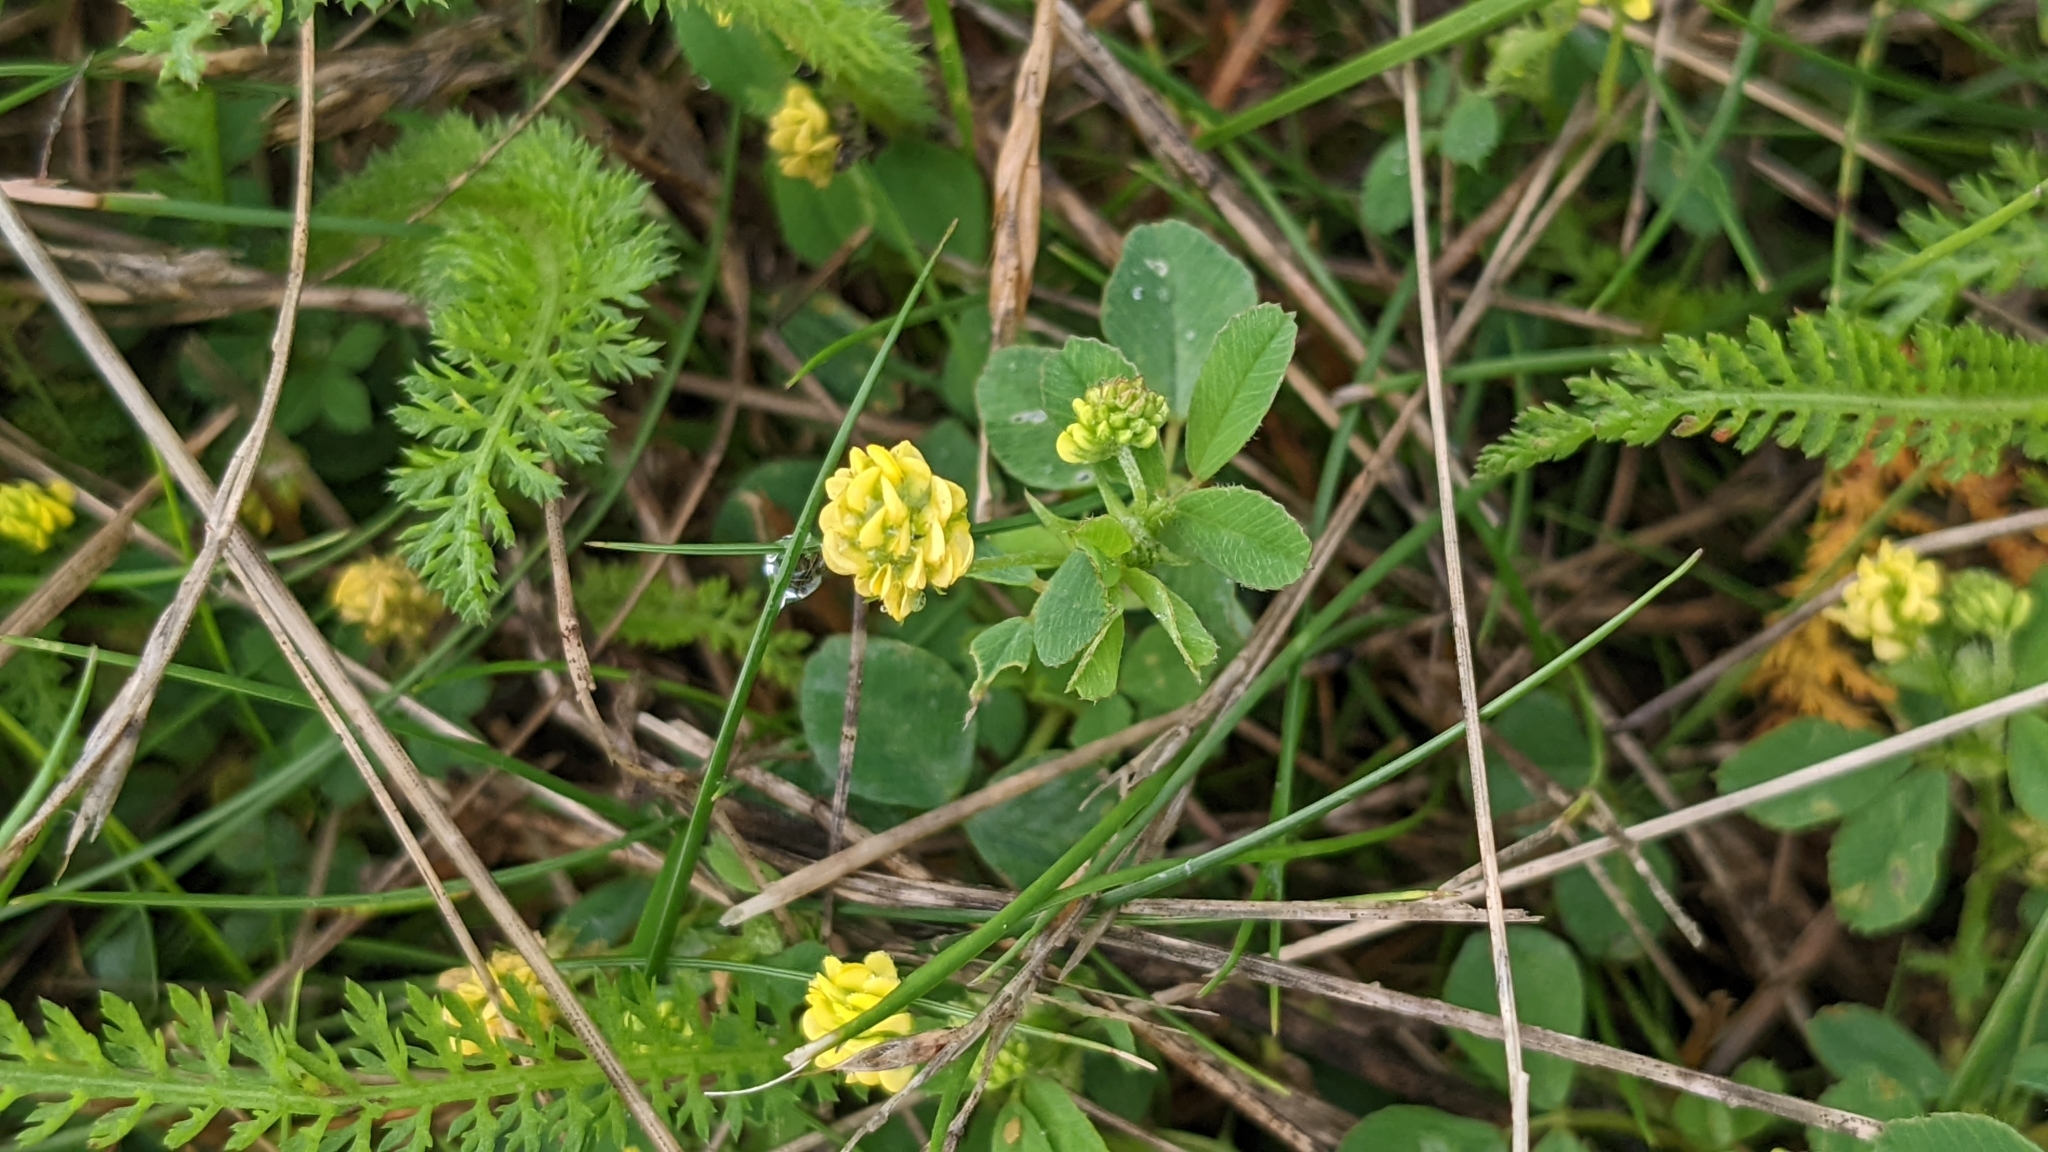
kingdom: Plantae
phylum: Tracheophyta
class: Magnoliopsida
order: Fabales
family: Fabaceae
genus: Medicago
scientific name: Medicago lupulina
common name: Black medick
